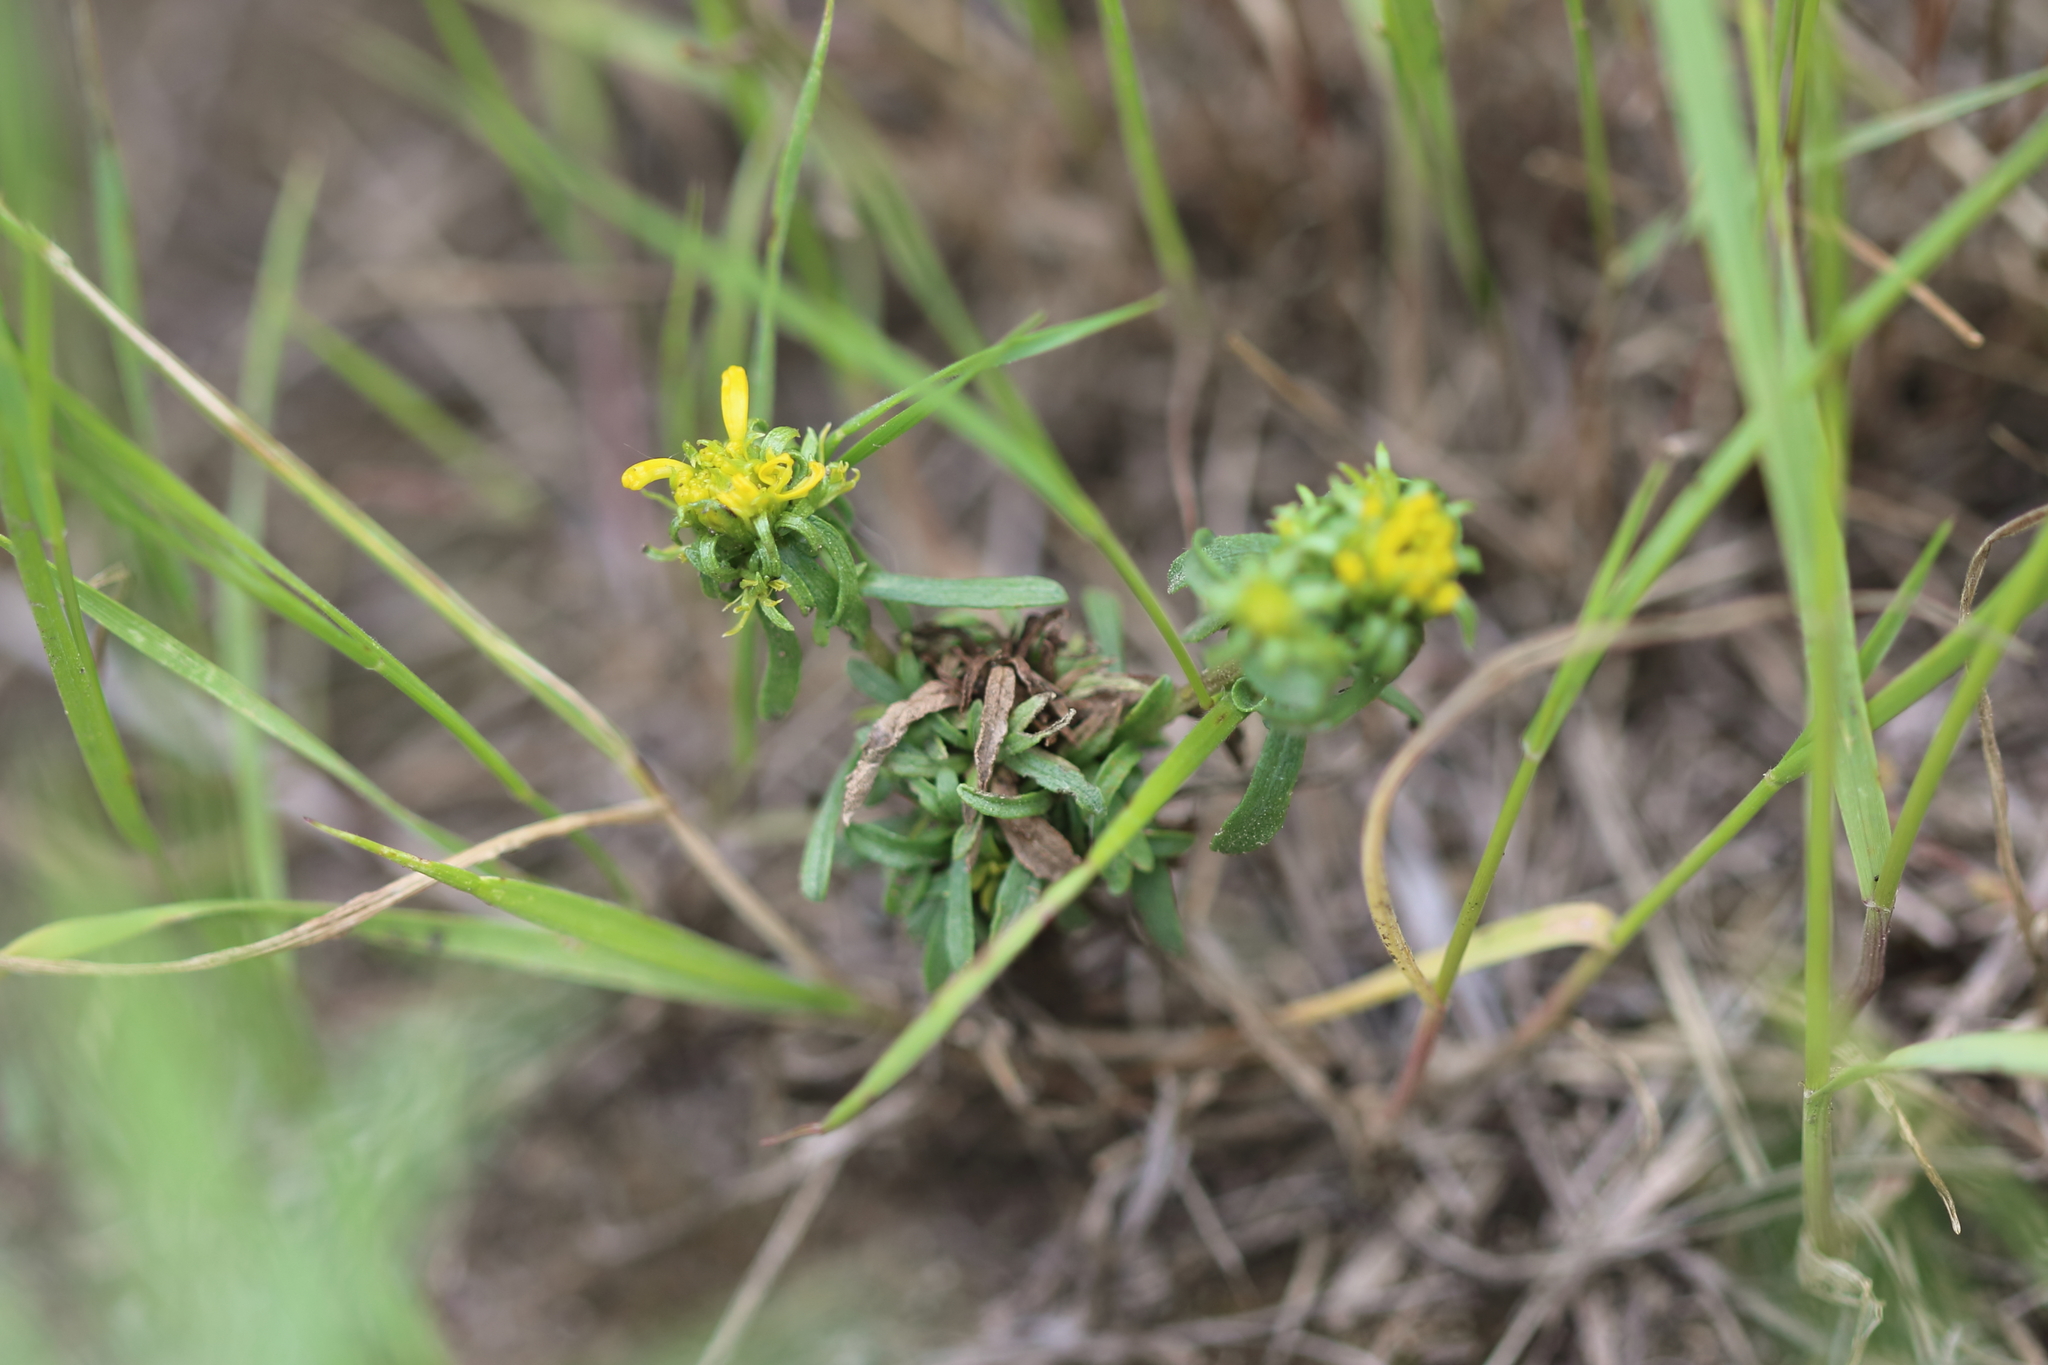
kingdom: Plantae
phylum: Tracheophyta
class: Magnoliopsida
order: Asterales
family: Asteraceae
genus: Grindelia
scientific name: Grindelia squarrosa
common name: Curly-cup gumweed
